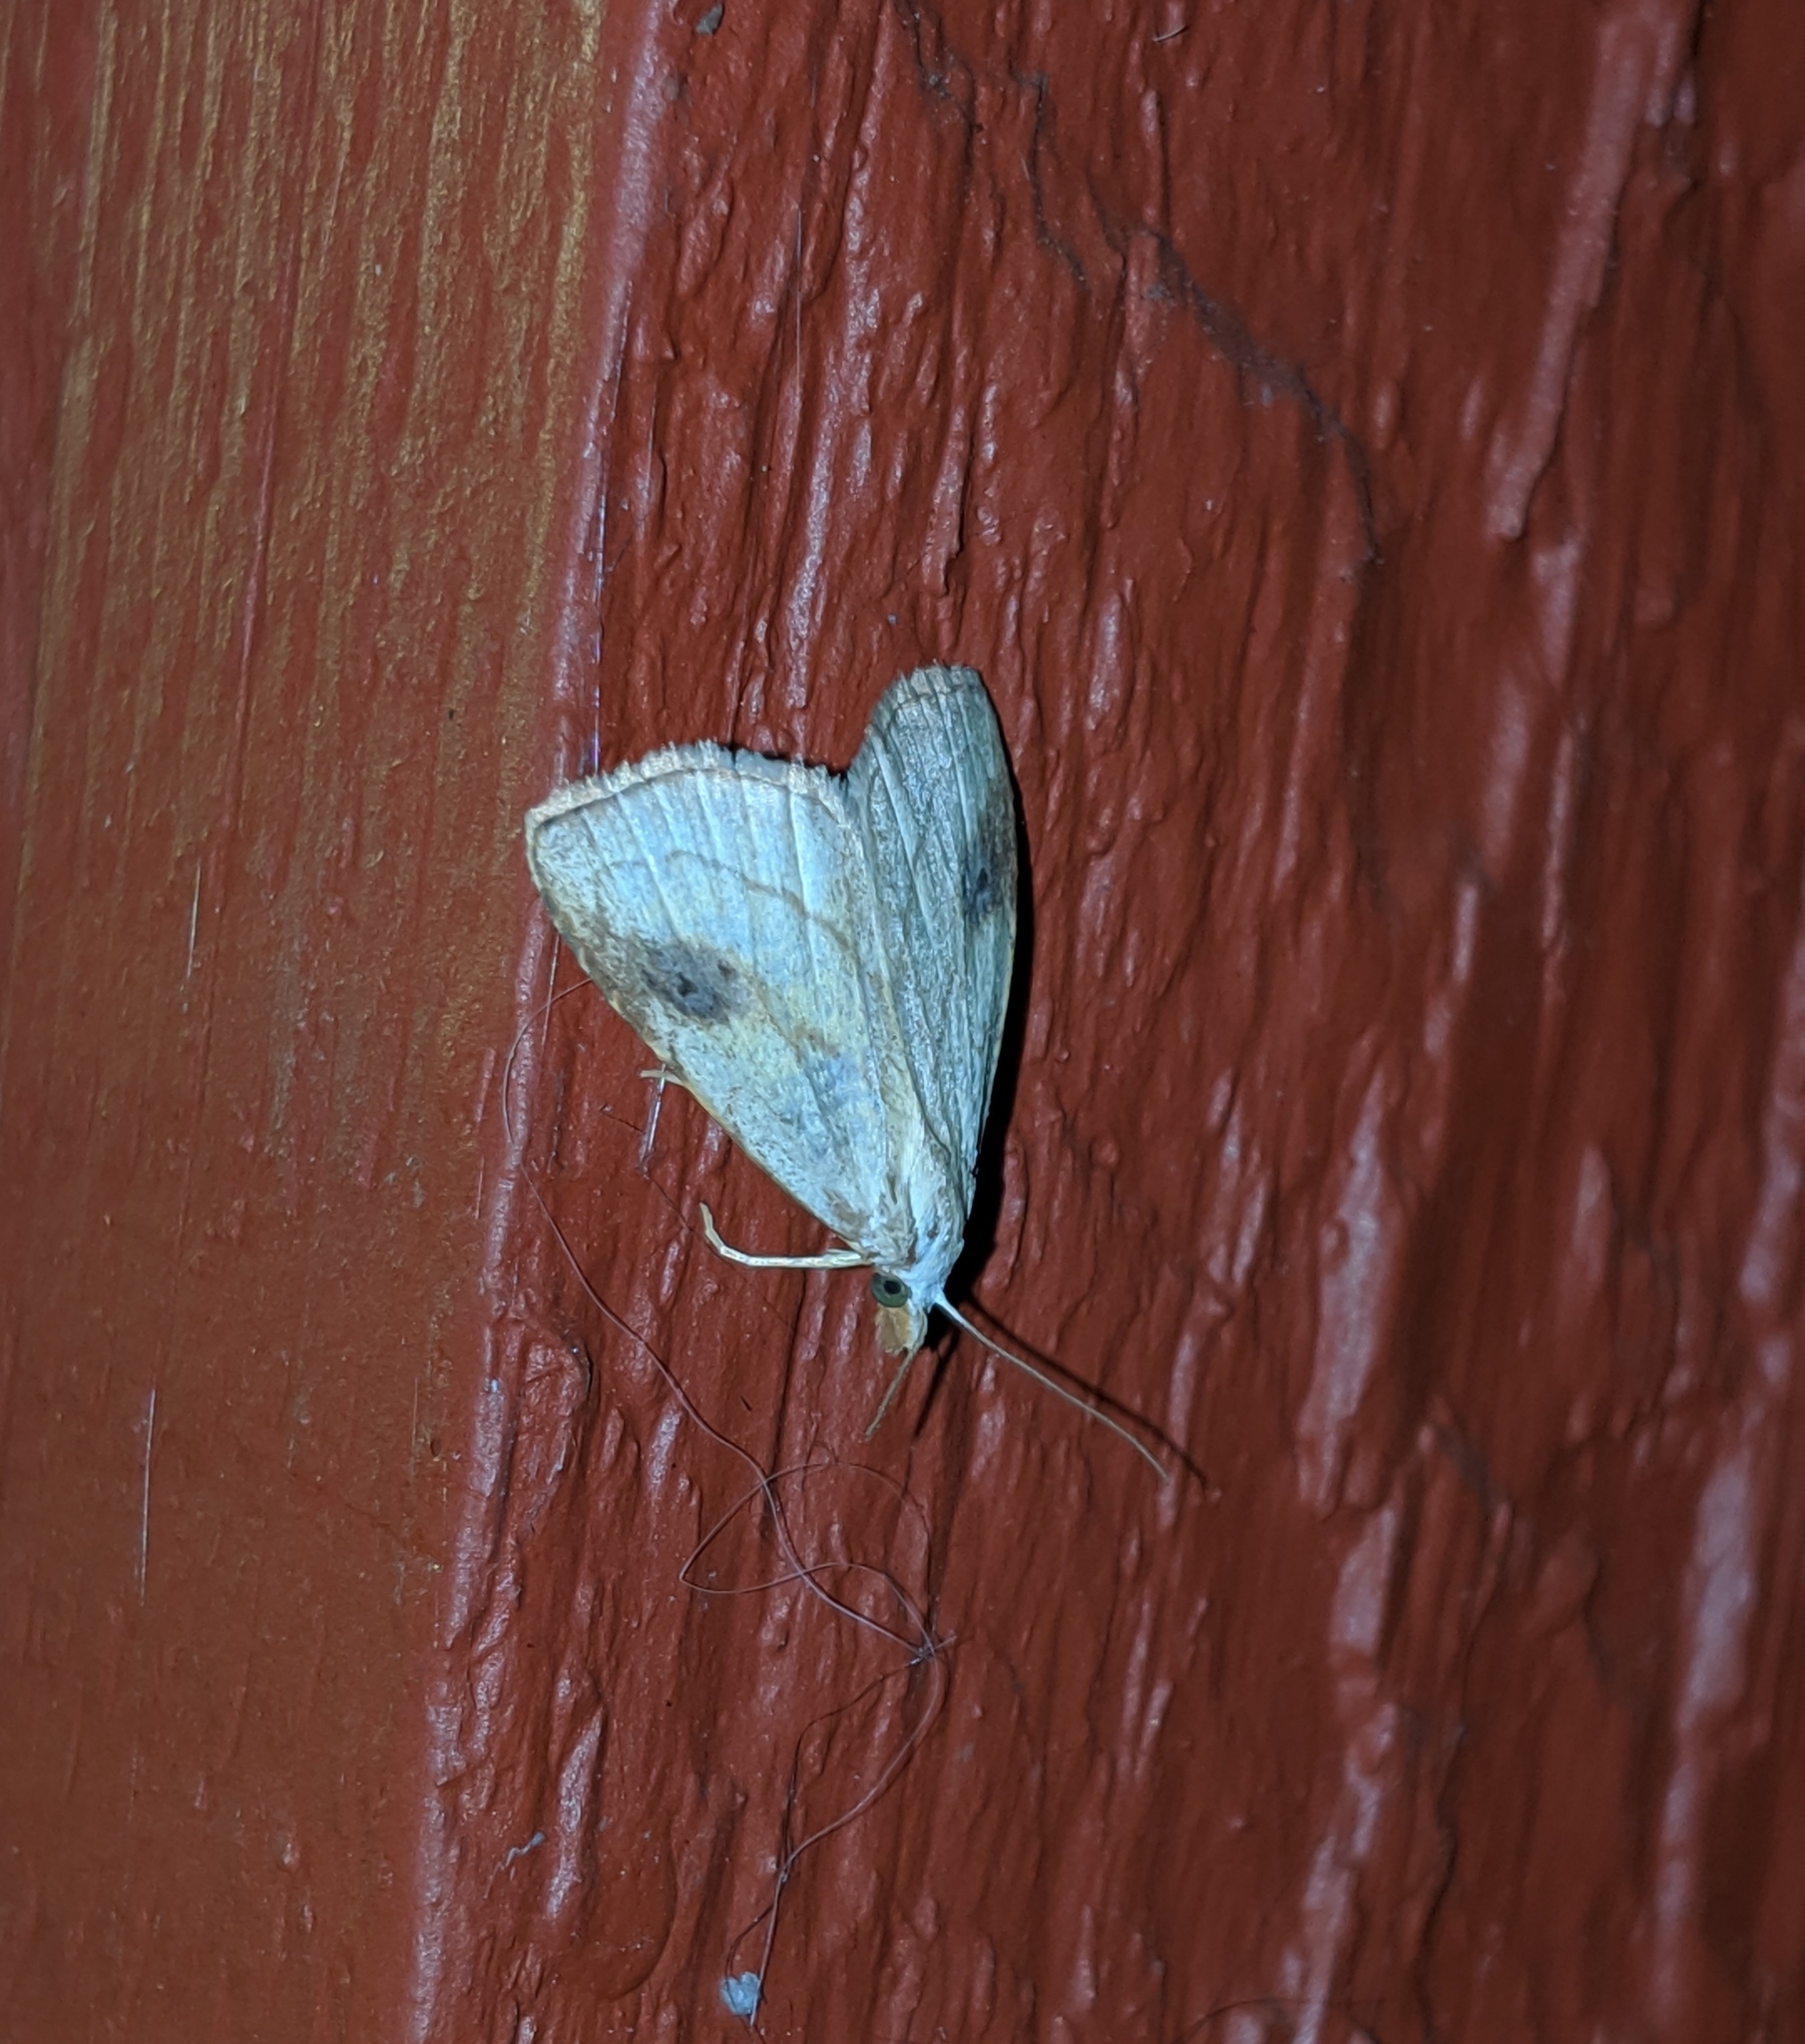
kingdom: Animalia
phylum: Arthropoda
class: Insecta
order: Lepidoptera
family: Erebidae
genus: Rivula
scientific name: Rivula propinqualis
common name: Spotted grass moth
